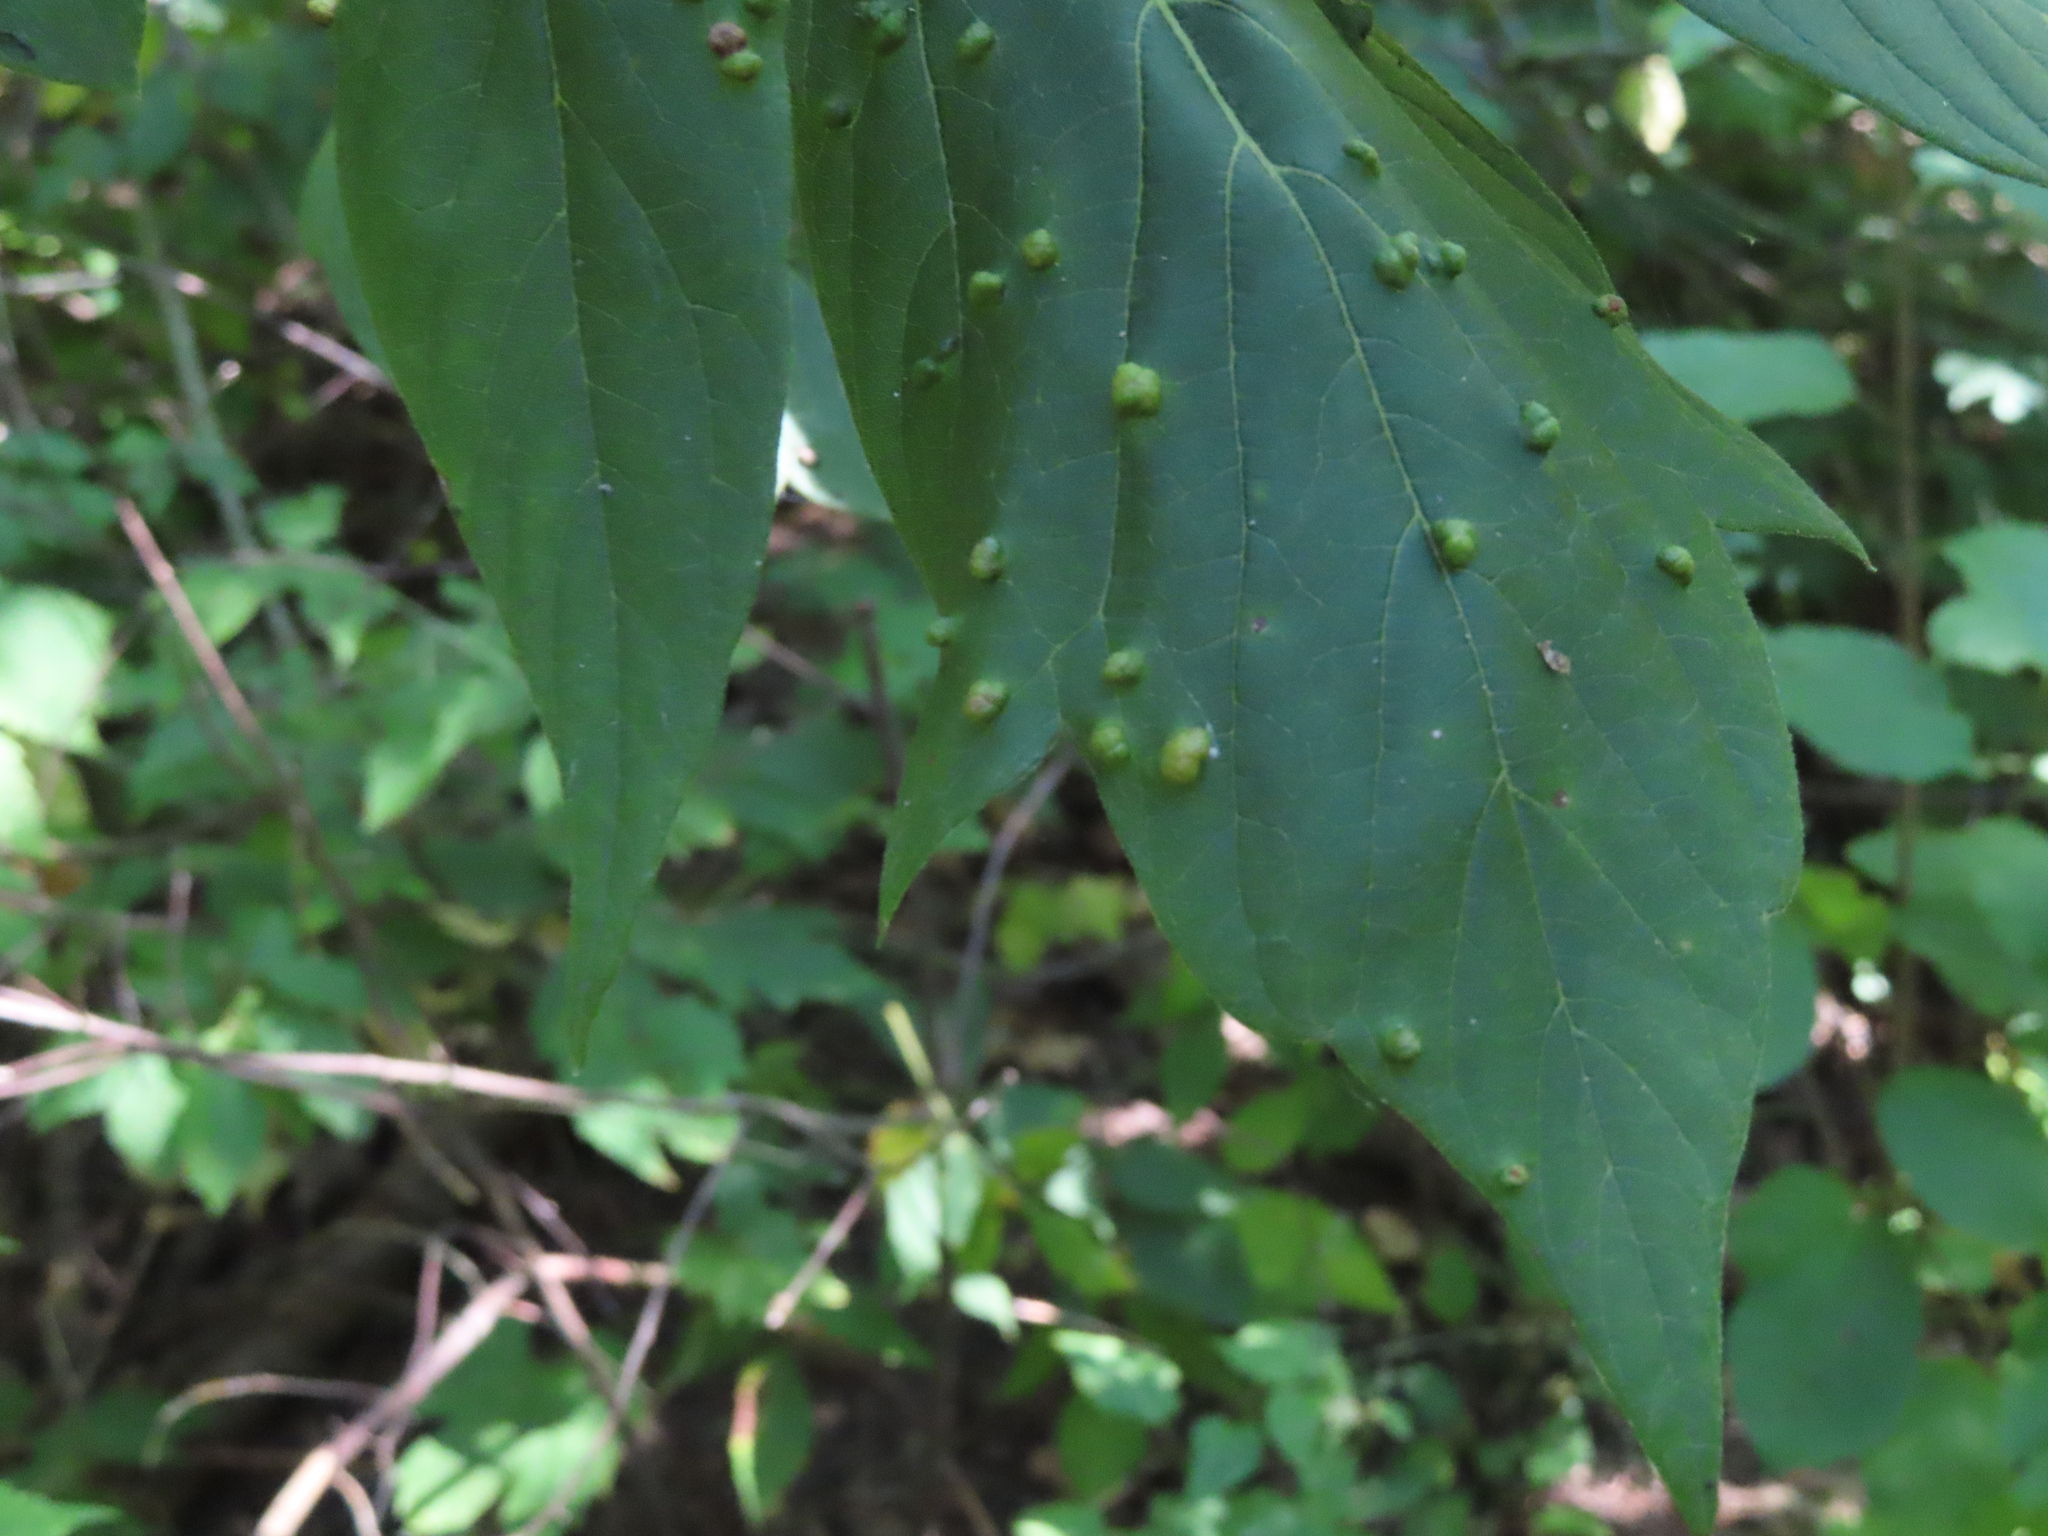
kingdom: Animalia
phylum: Arthropoda
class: Arachnida
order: Trombidiformes
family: Eriophyidae
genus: Aceria
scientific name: Aceria
